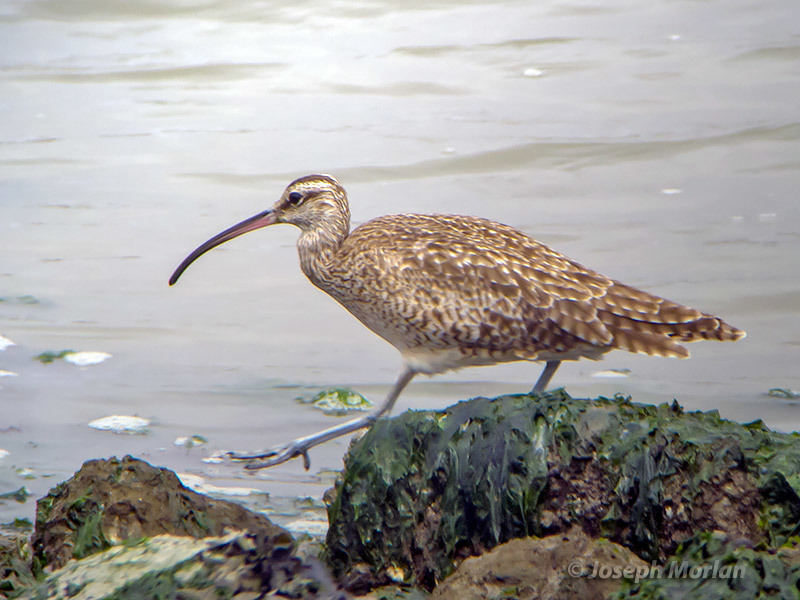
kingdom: Animalia
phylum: Chordata
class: Aves
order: Charadriiformes
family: Scolopacidae
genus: Numenius
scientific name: Numenius phaeopus
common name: Whimbrel
